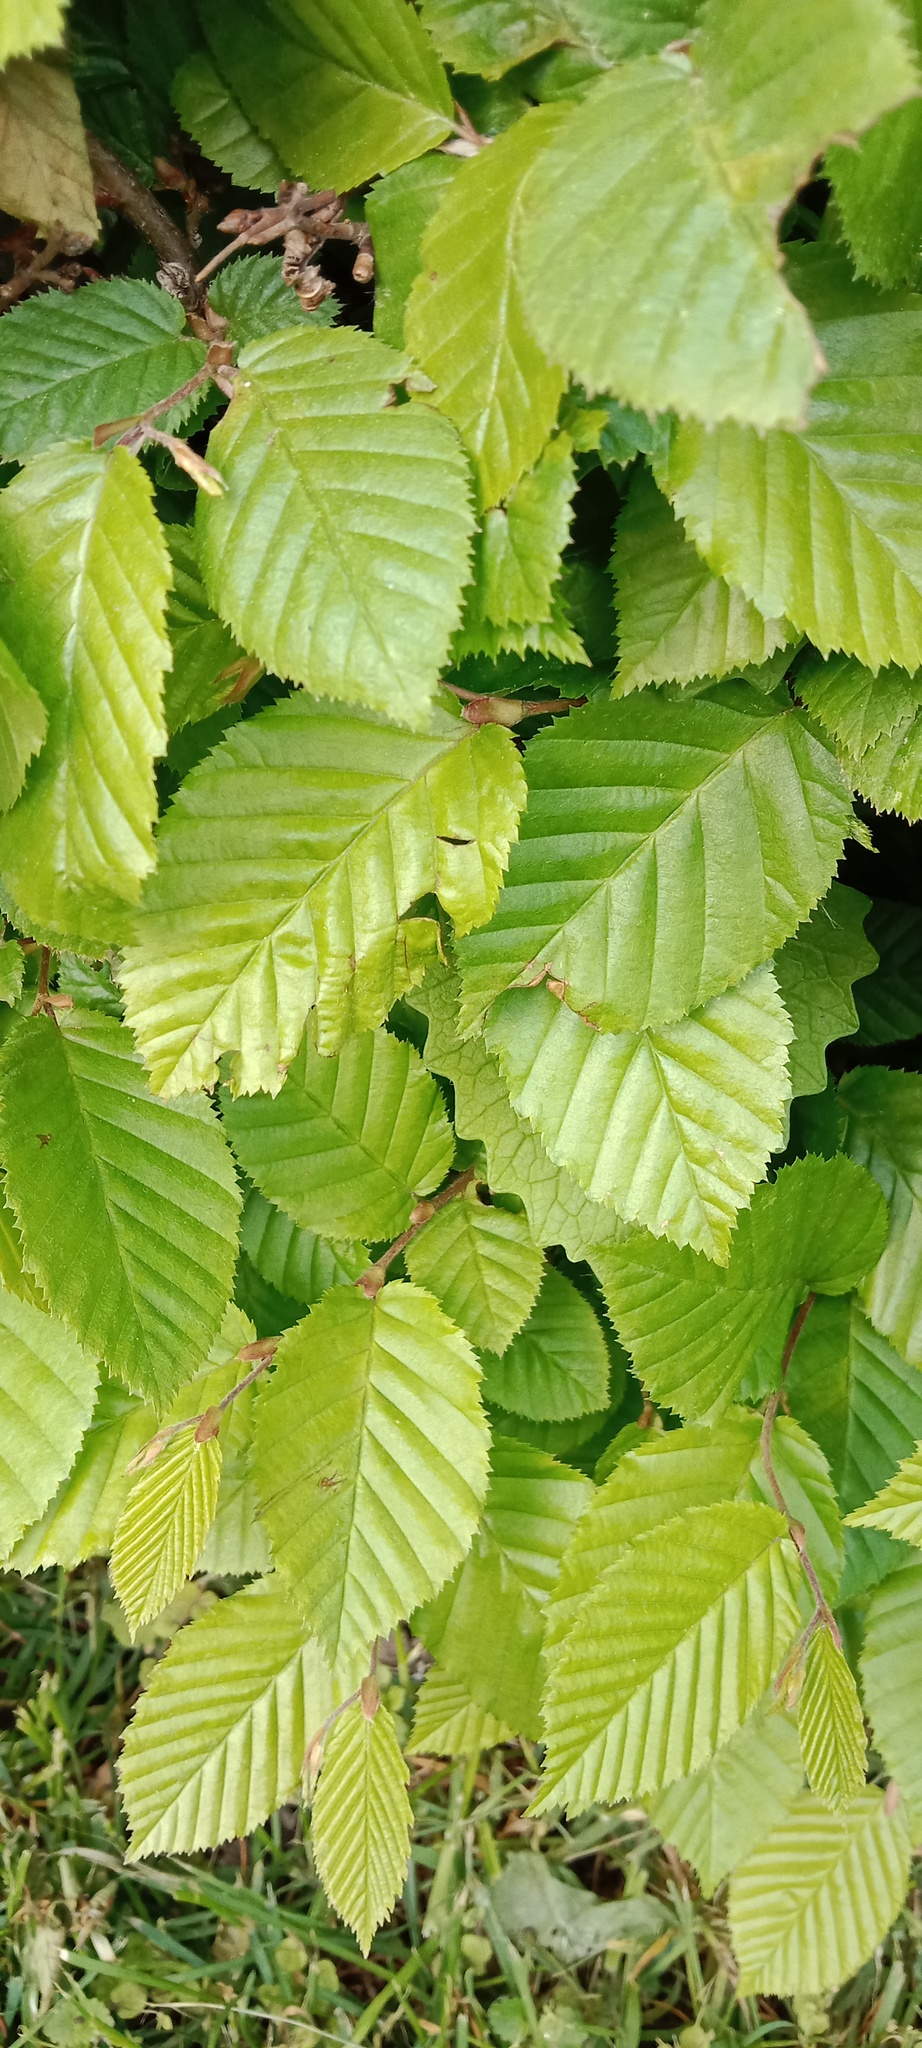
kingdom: Plantae
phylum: Tracheophyta
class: Magnoliopsida
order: Fagales
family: Betulaceae
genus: Carpinus
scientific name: Carpinus betulus
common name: Hornbeam
